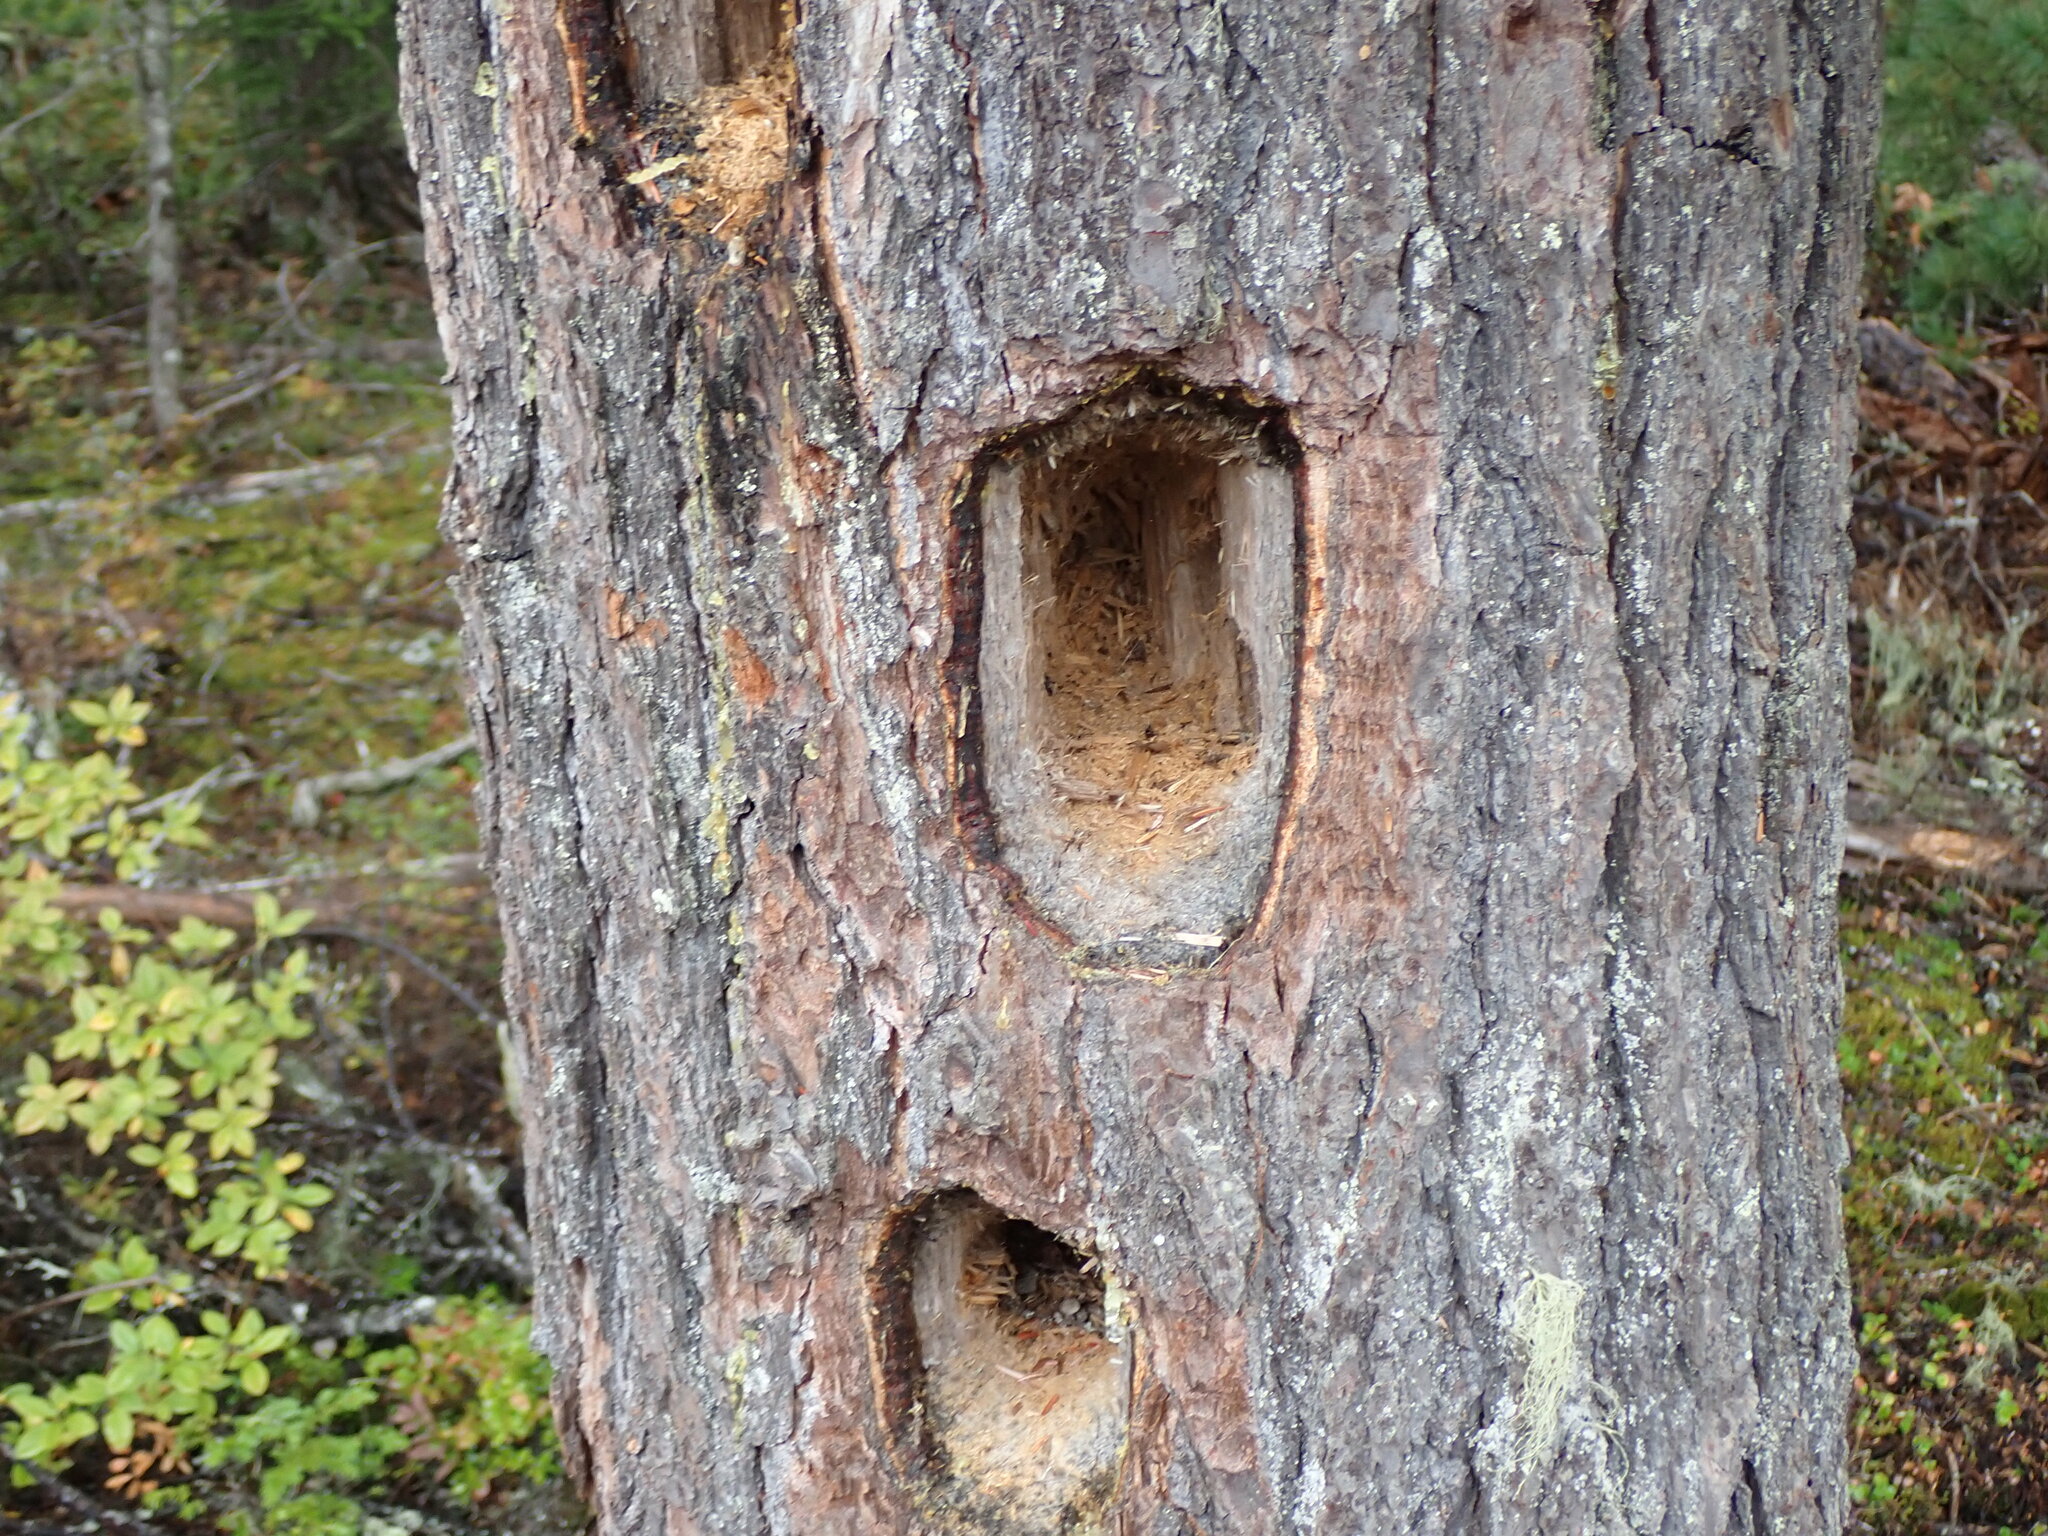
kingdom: Animalia
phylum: Chordata
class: Aves
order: Piciformes
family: Picidae
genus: Dryocopus
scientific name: Dryocopus pileatus
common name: Pileated woodpecker
